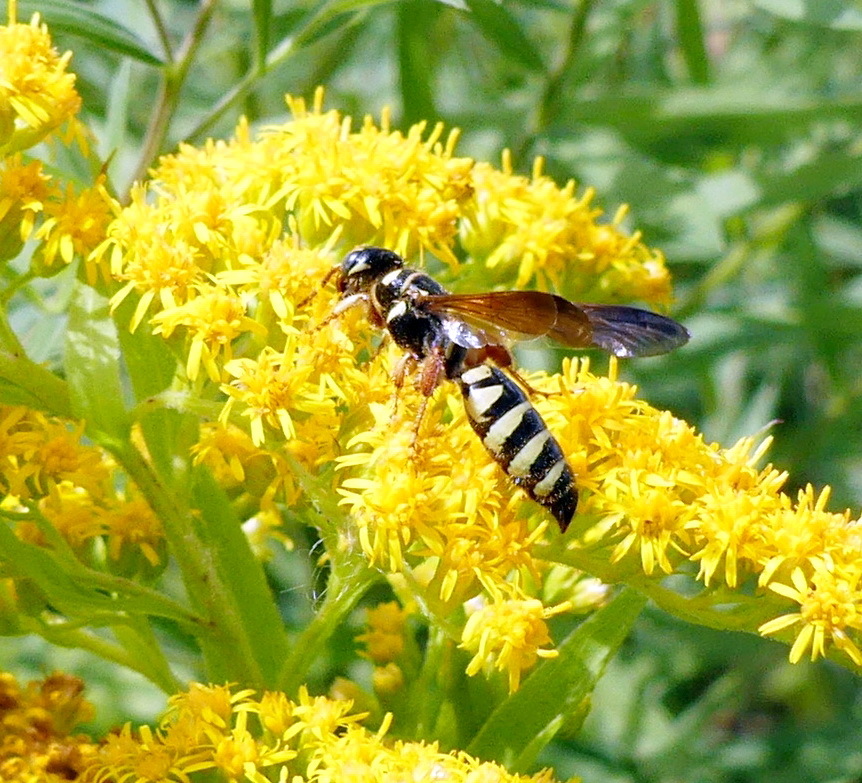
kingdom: Animalia
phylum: Arthropoda
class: Insecta
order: Hymenoptera
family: Tiphiidae
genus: Myzinum
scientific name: Myzinum quinquecinctum
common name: Five-banded thynnid wasp
